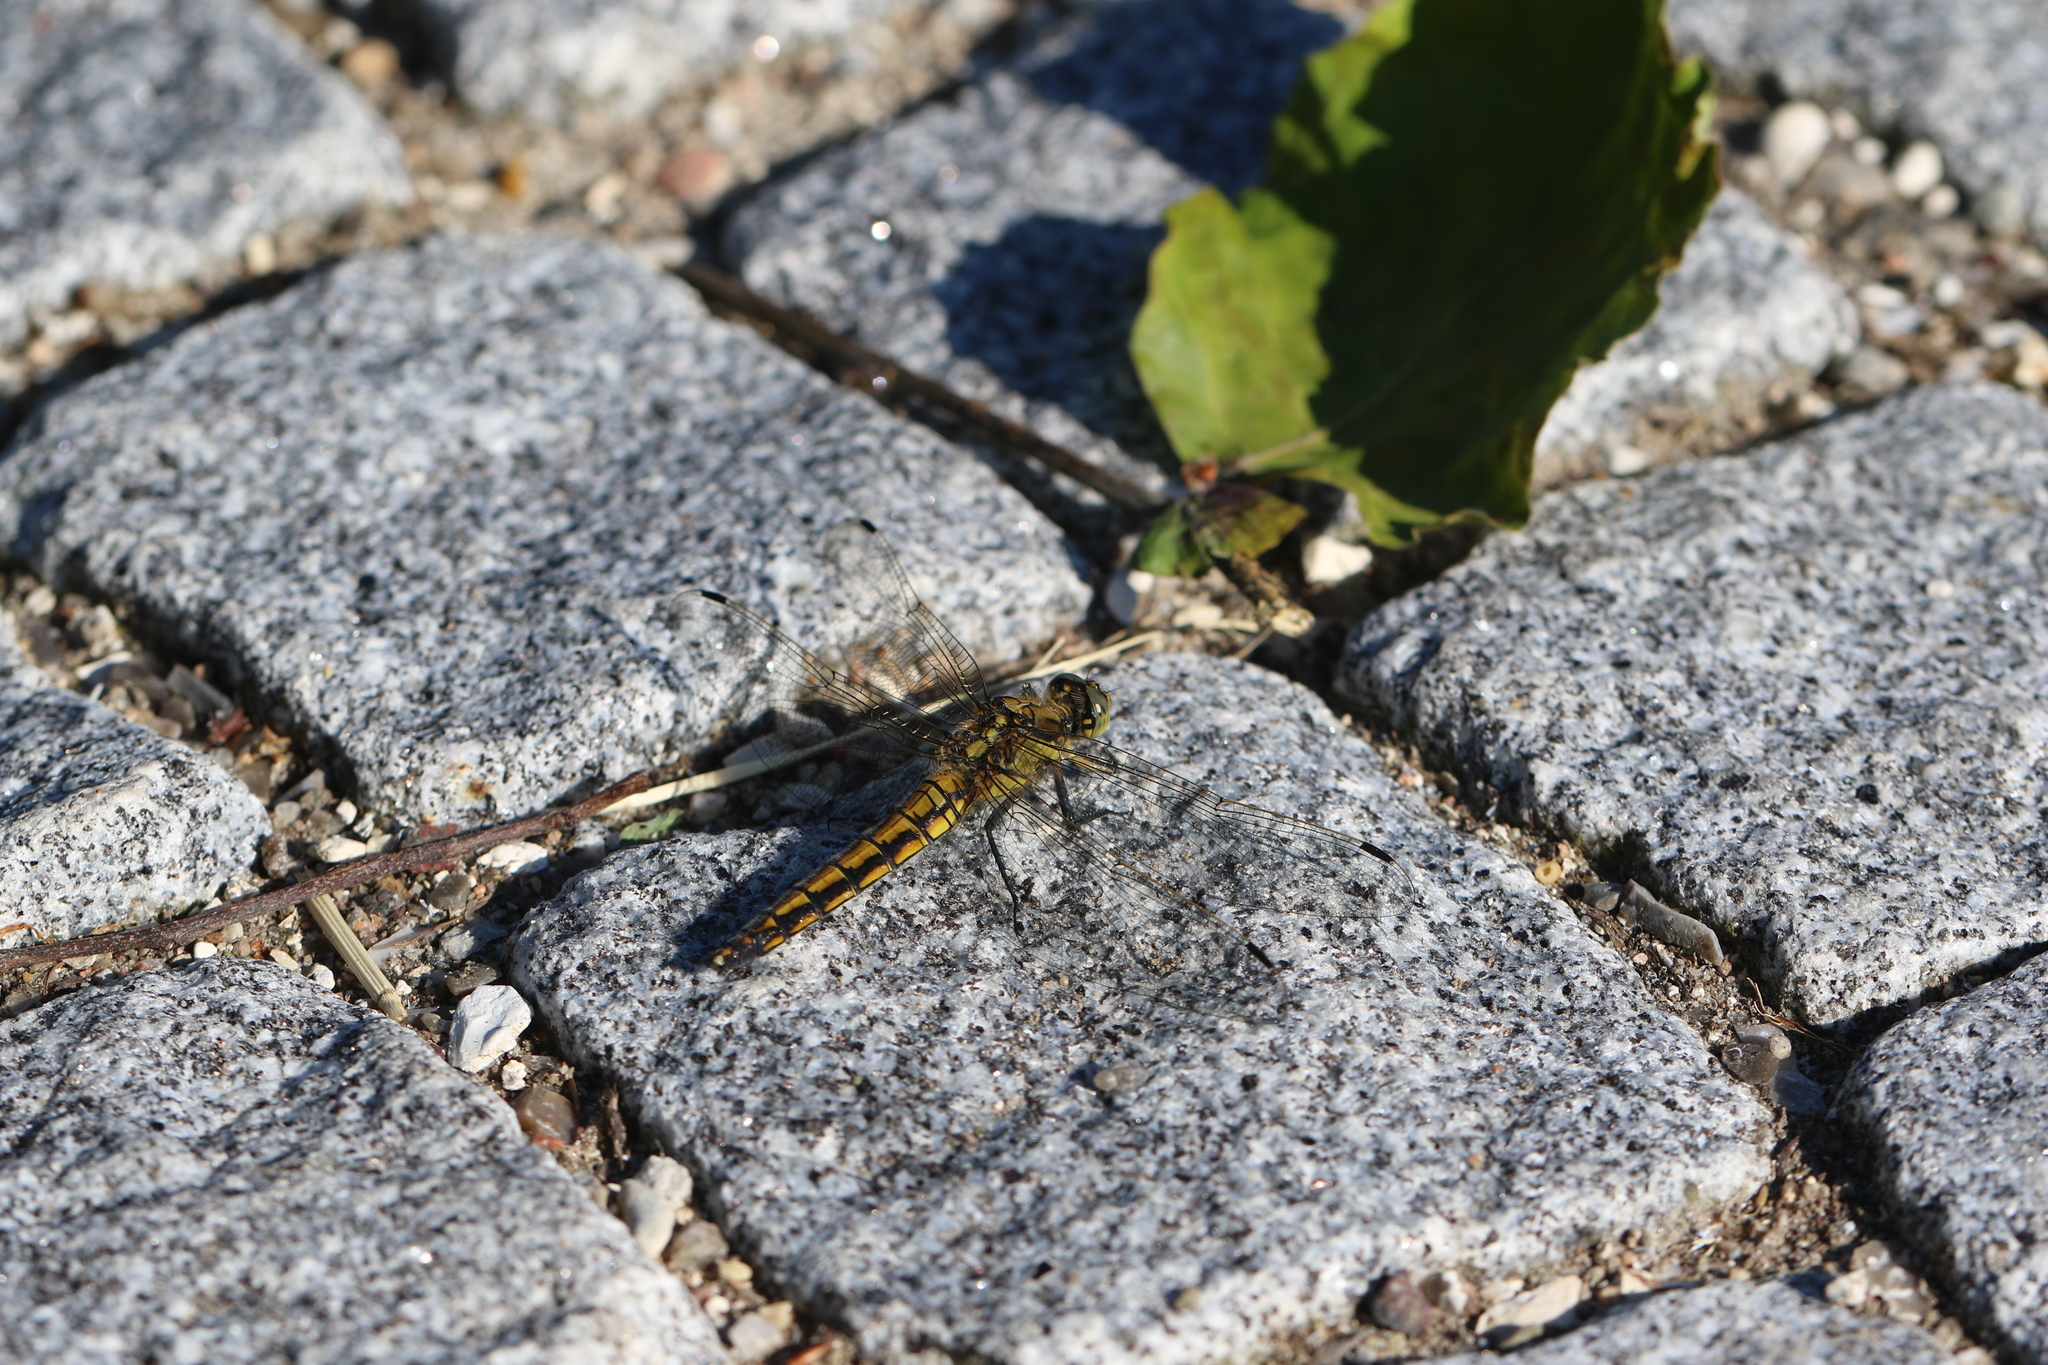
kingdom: Animalia
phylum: Arthropoda
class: Insecta
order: Odonata
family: Libellulidae
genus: Orthetrum
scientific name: Orthetrum cancellatum
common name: Black-tailed skimmer
